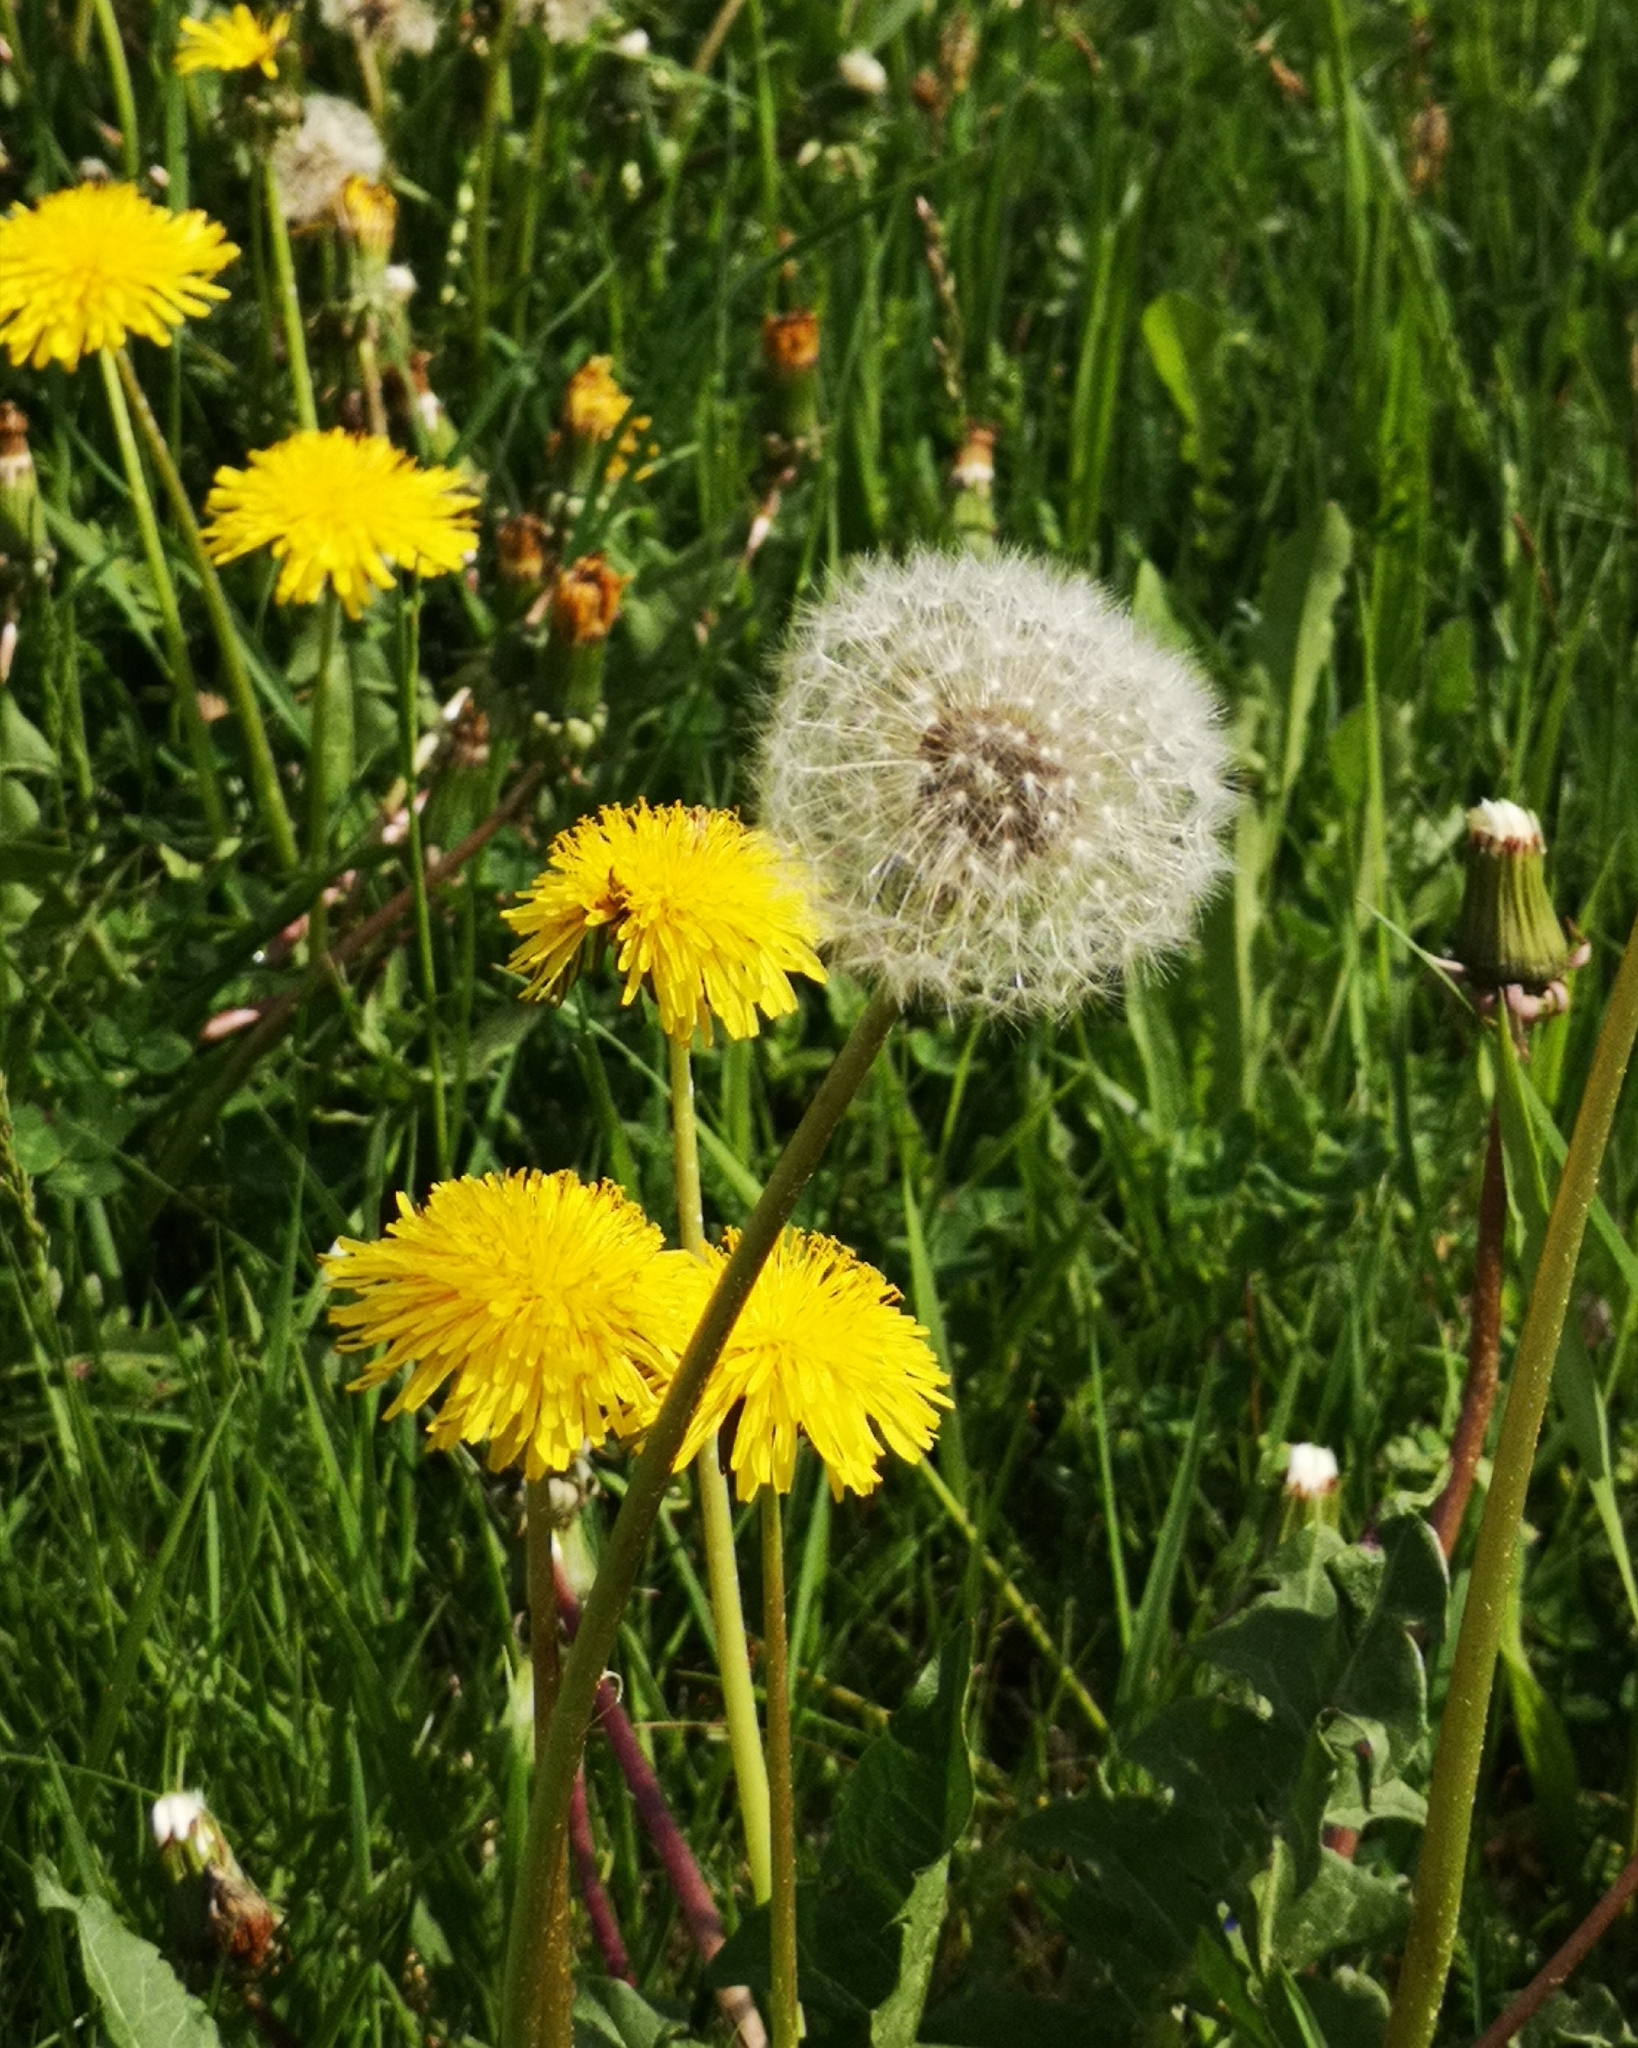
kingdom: Plantae
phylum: Tracheophyta
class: Magnoliopsida
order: Asterales
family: Asteraceae
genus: Taraxacum
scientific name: Taraxacum
